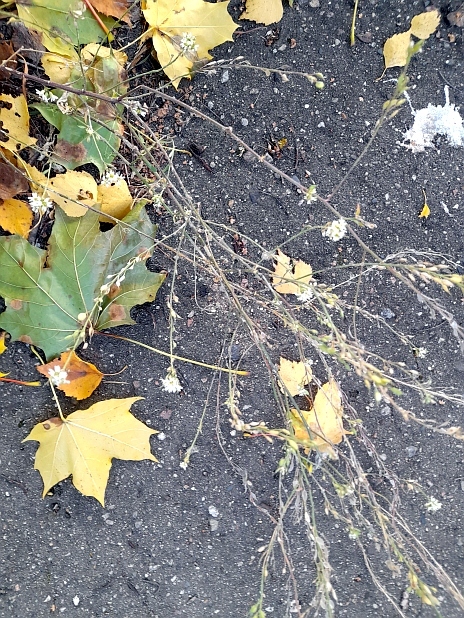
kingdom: Plantae
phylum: Tracheophyta
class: Magnoliopsida
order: Brassicales
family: Brassicaceae
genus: Berteroa
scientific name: Berteroa incana
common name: Hoary alison
